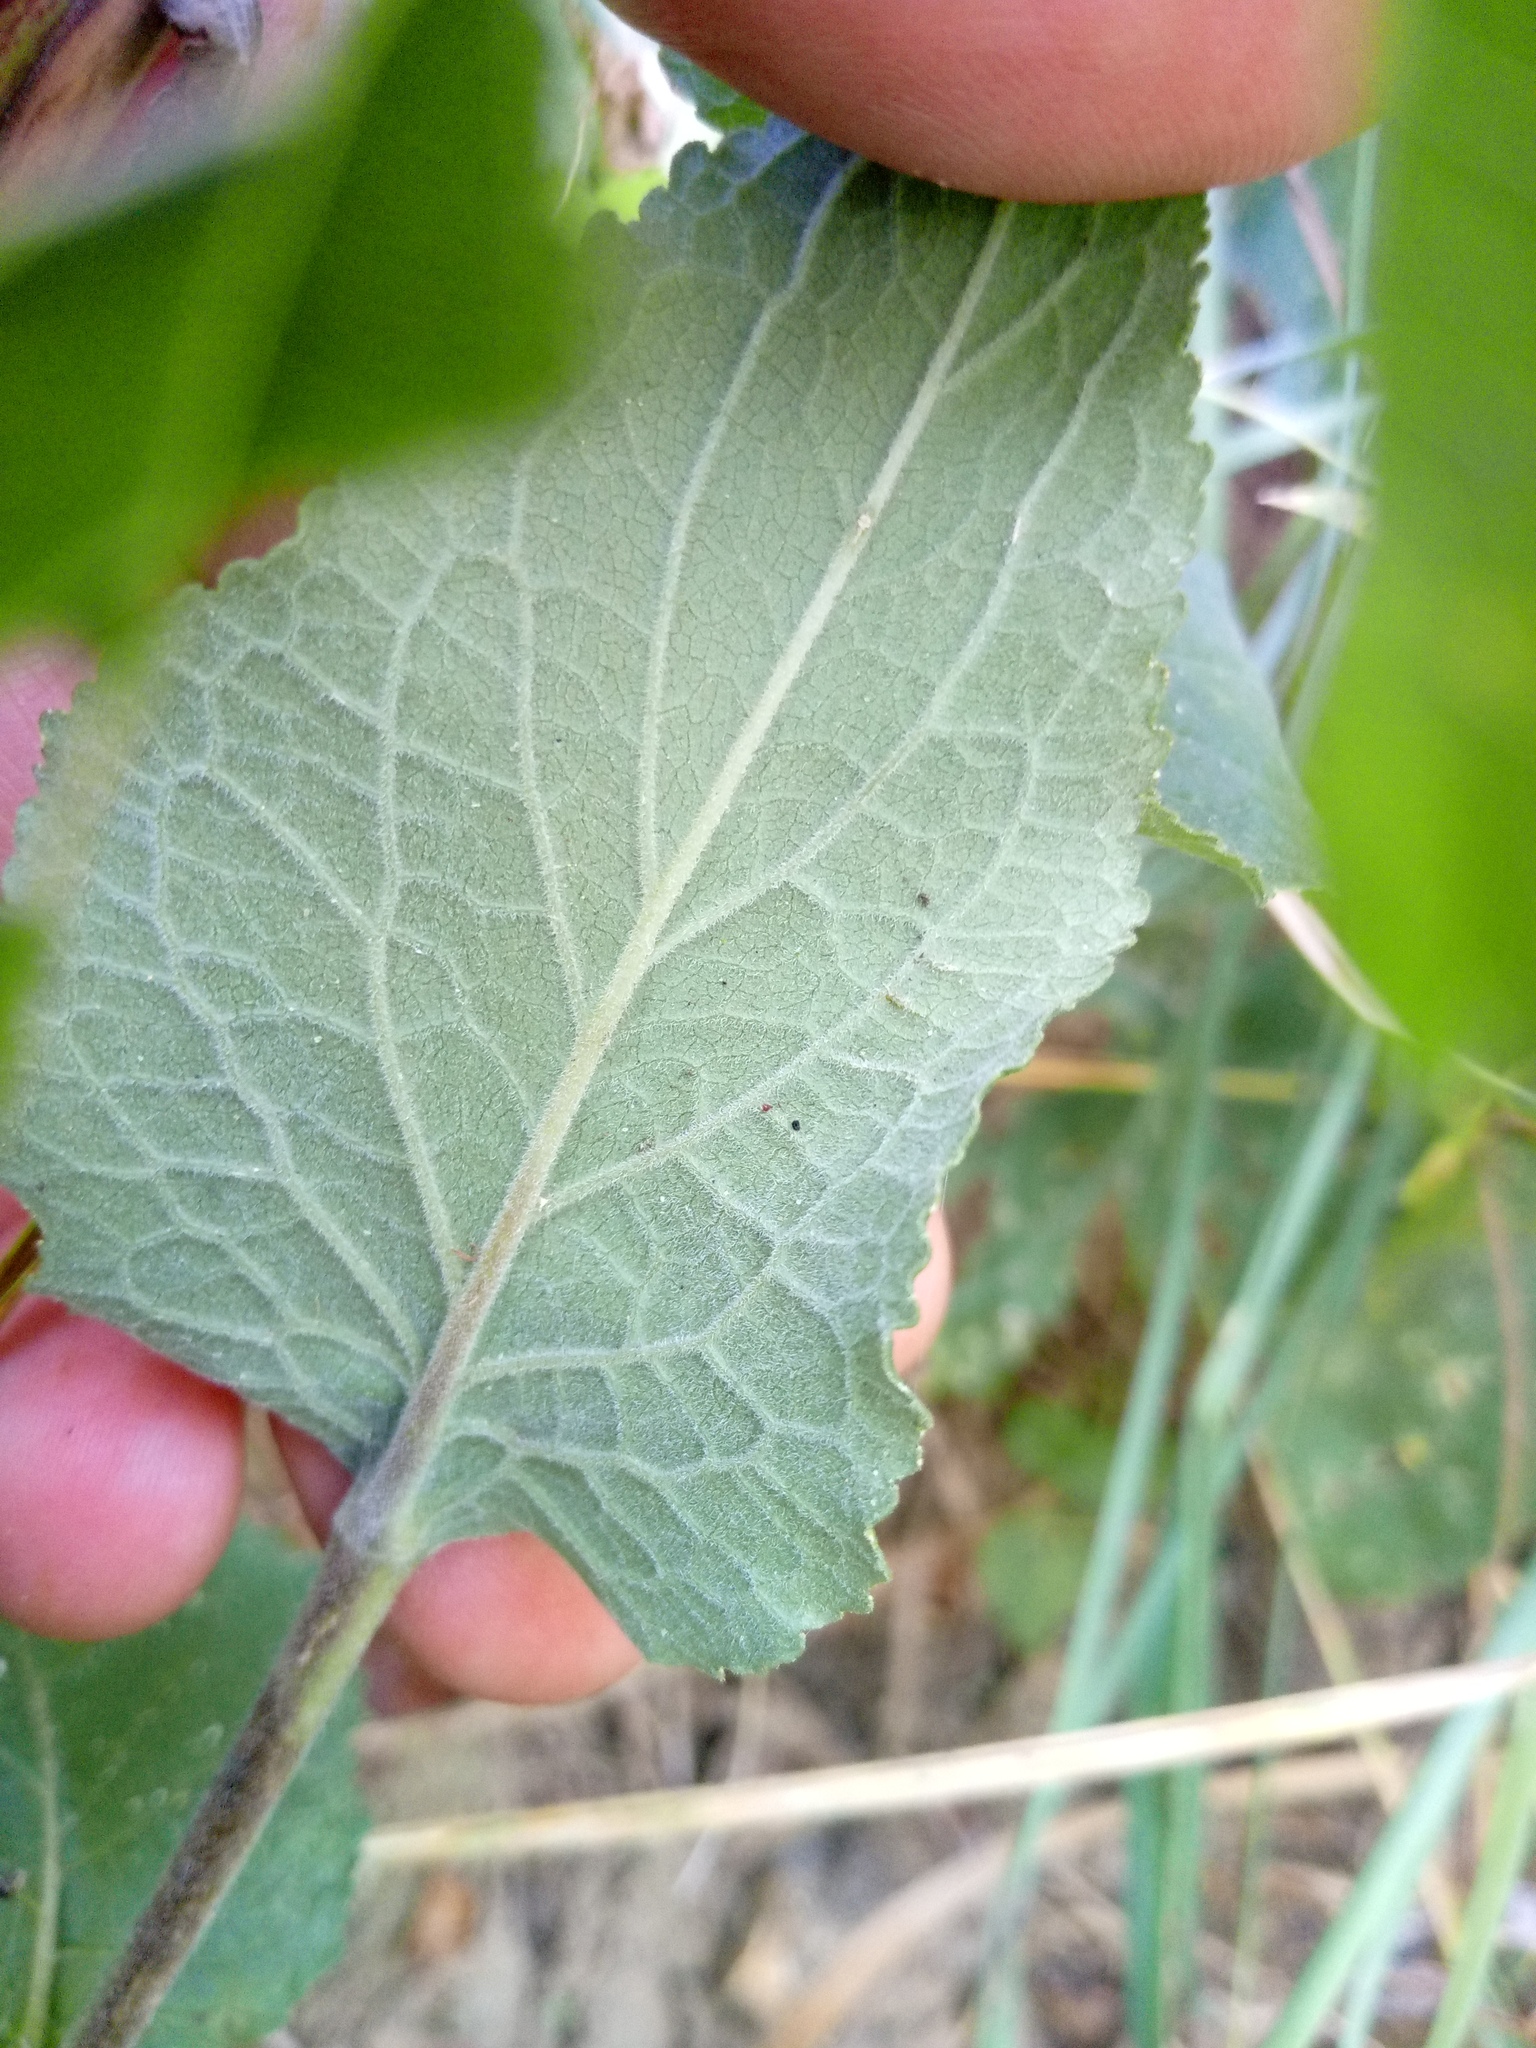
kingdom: Plantae
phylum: Tracheophyta
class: Magnoliopsida
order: Asterales
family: Campanulaceae
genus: Campanula
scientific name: Campanula bononiensis
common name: Pale bellflower
